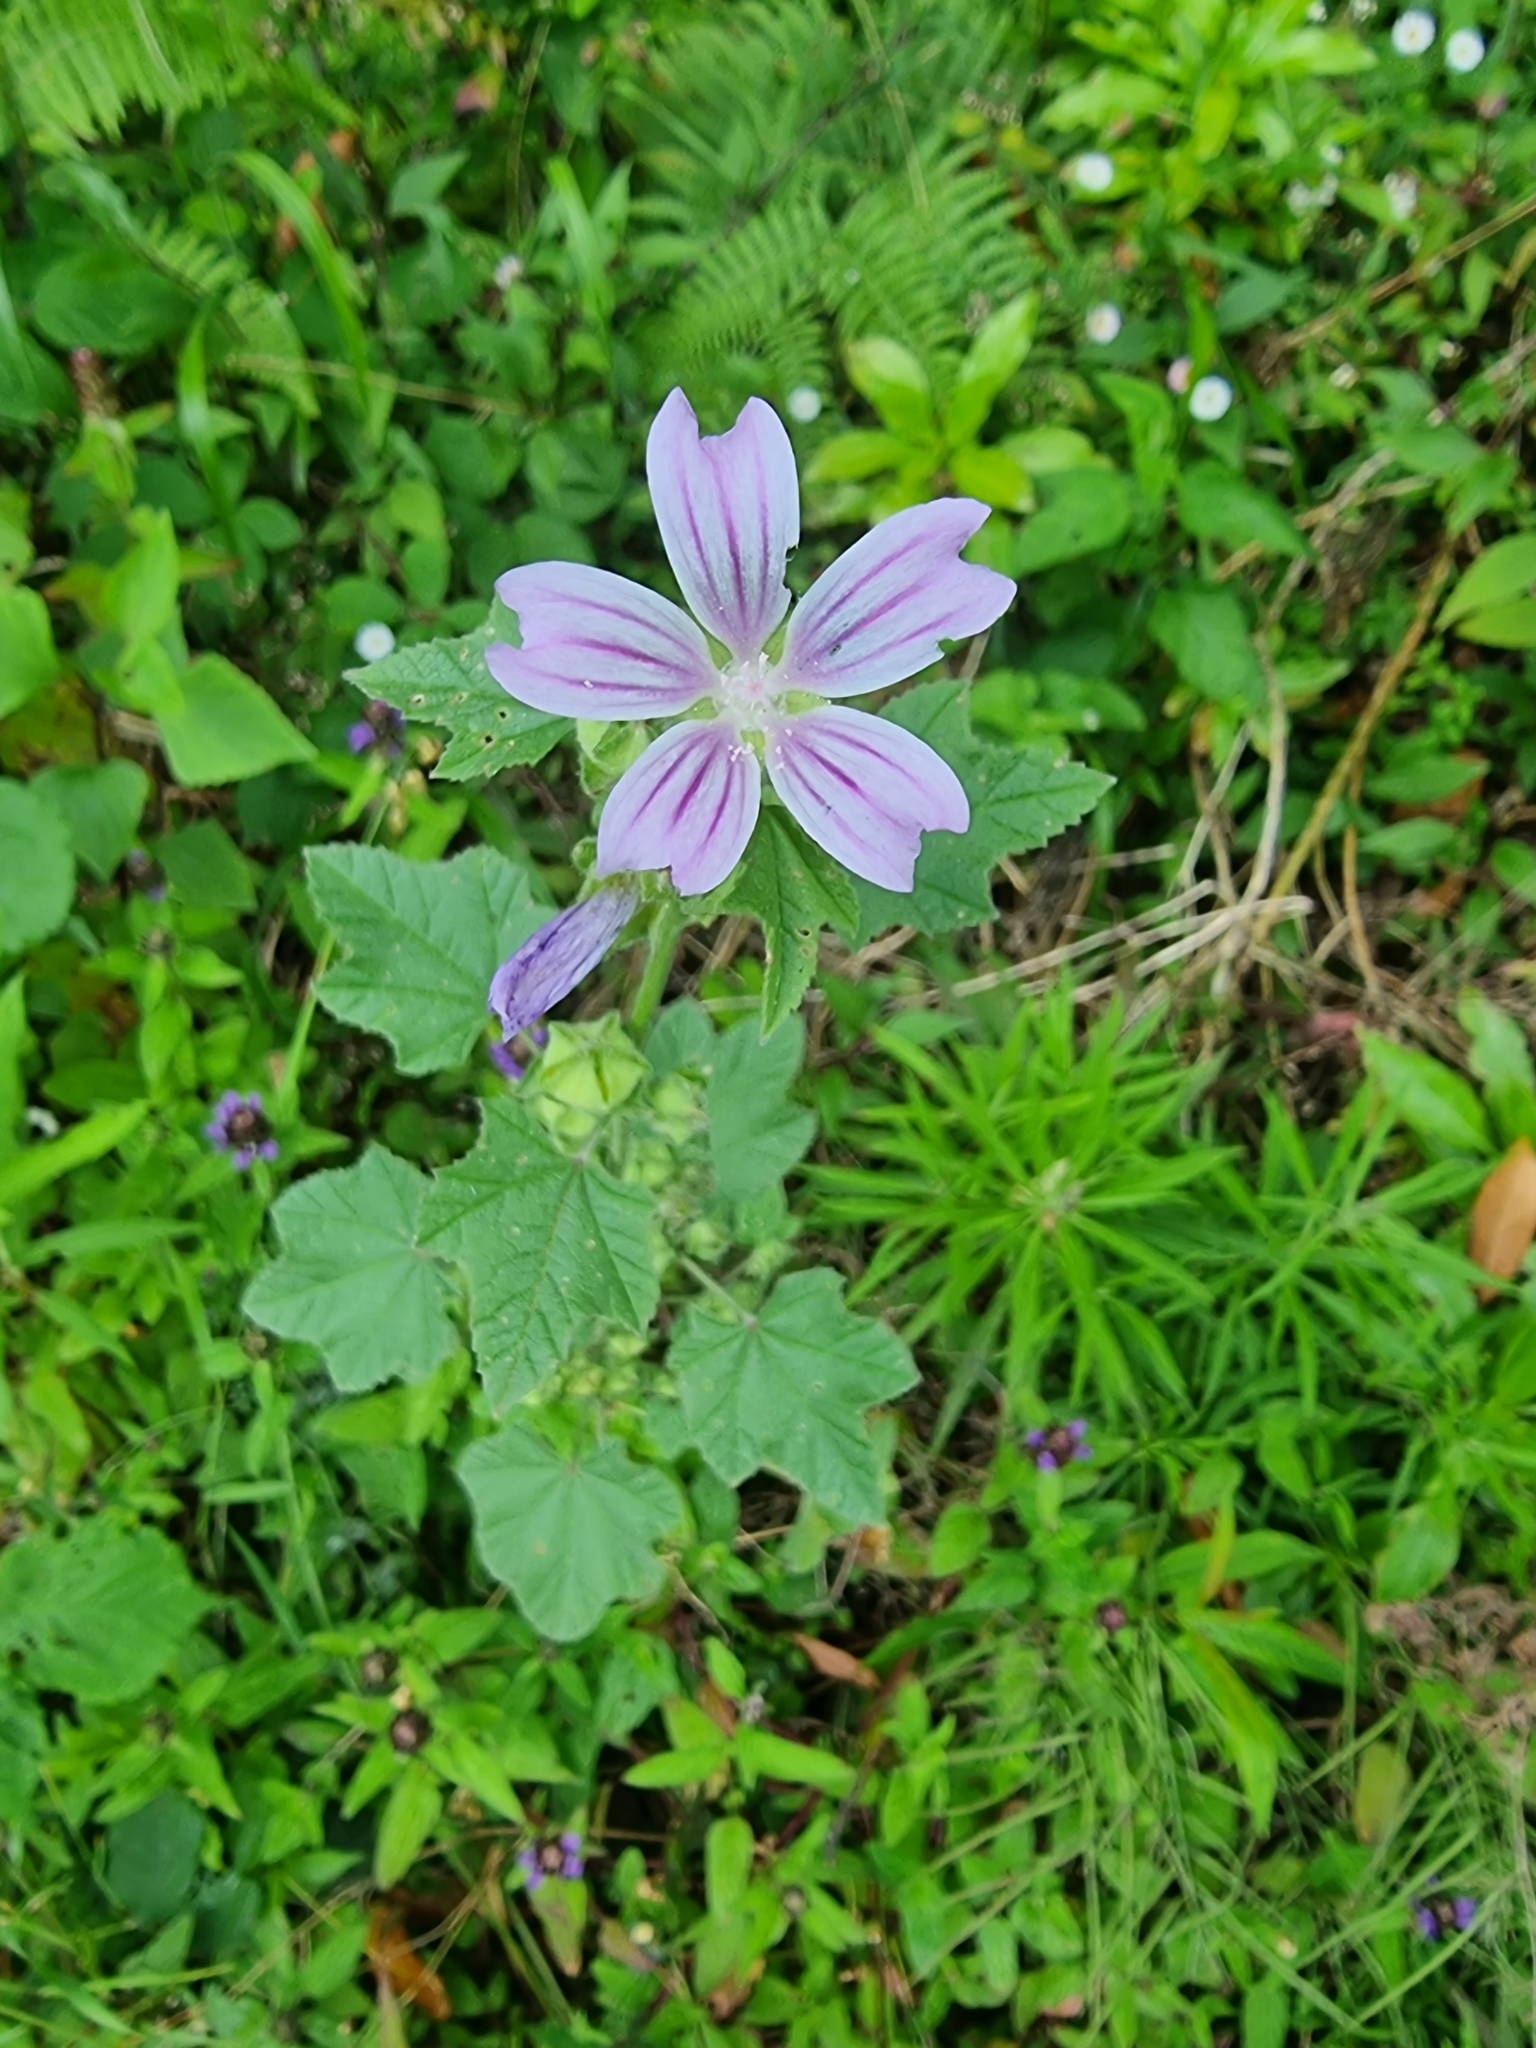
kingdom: Plantae
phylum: Tracheophyta
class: Magnoliopsida
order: Malvales
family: Malvaceae
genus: Malva
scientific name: Malva multiflora
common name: Cheeseweed
